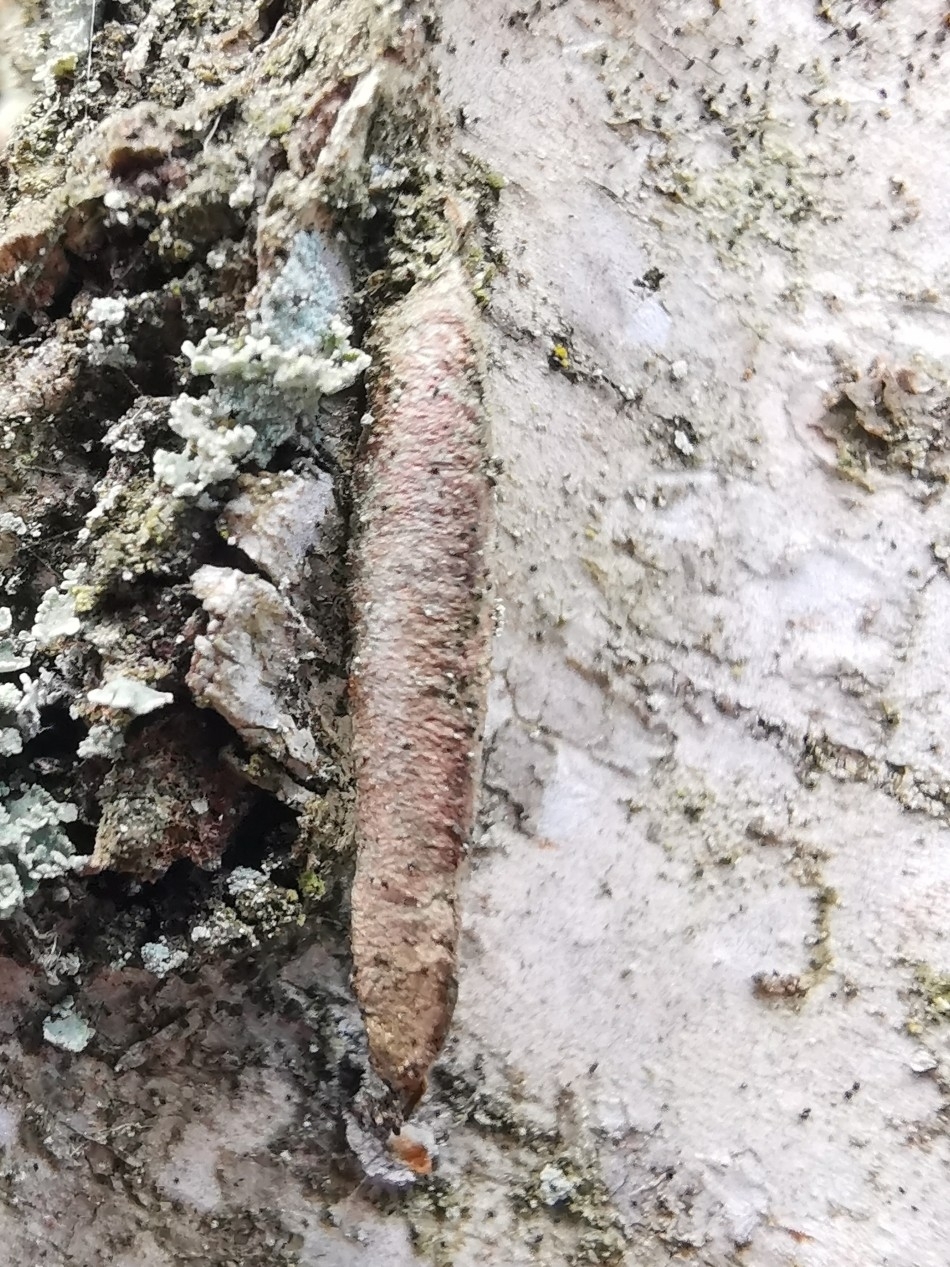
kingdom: Animalia
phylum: Arthropoda
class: Insecta
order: Lepidoptera
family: Psychidae
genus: Taleporia
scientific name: Taleporia tubulosa
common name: Brown smoke
